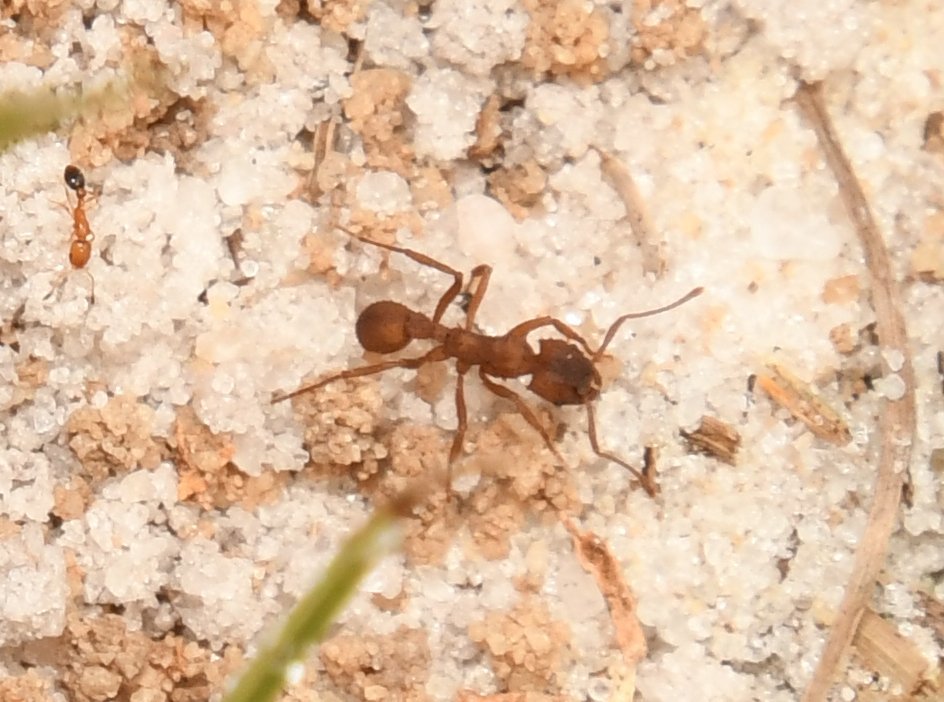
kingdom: Animalia
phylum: Arthropoda
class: Insecta
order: Hymenoptera
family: Formicidae
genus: Trachymyrmex
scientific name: Trachymyrmex septentrionalis
